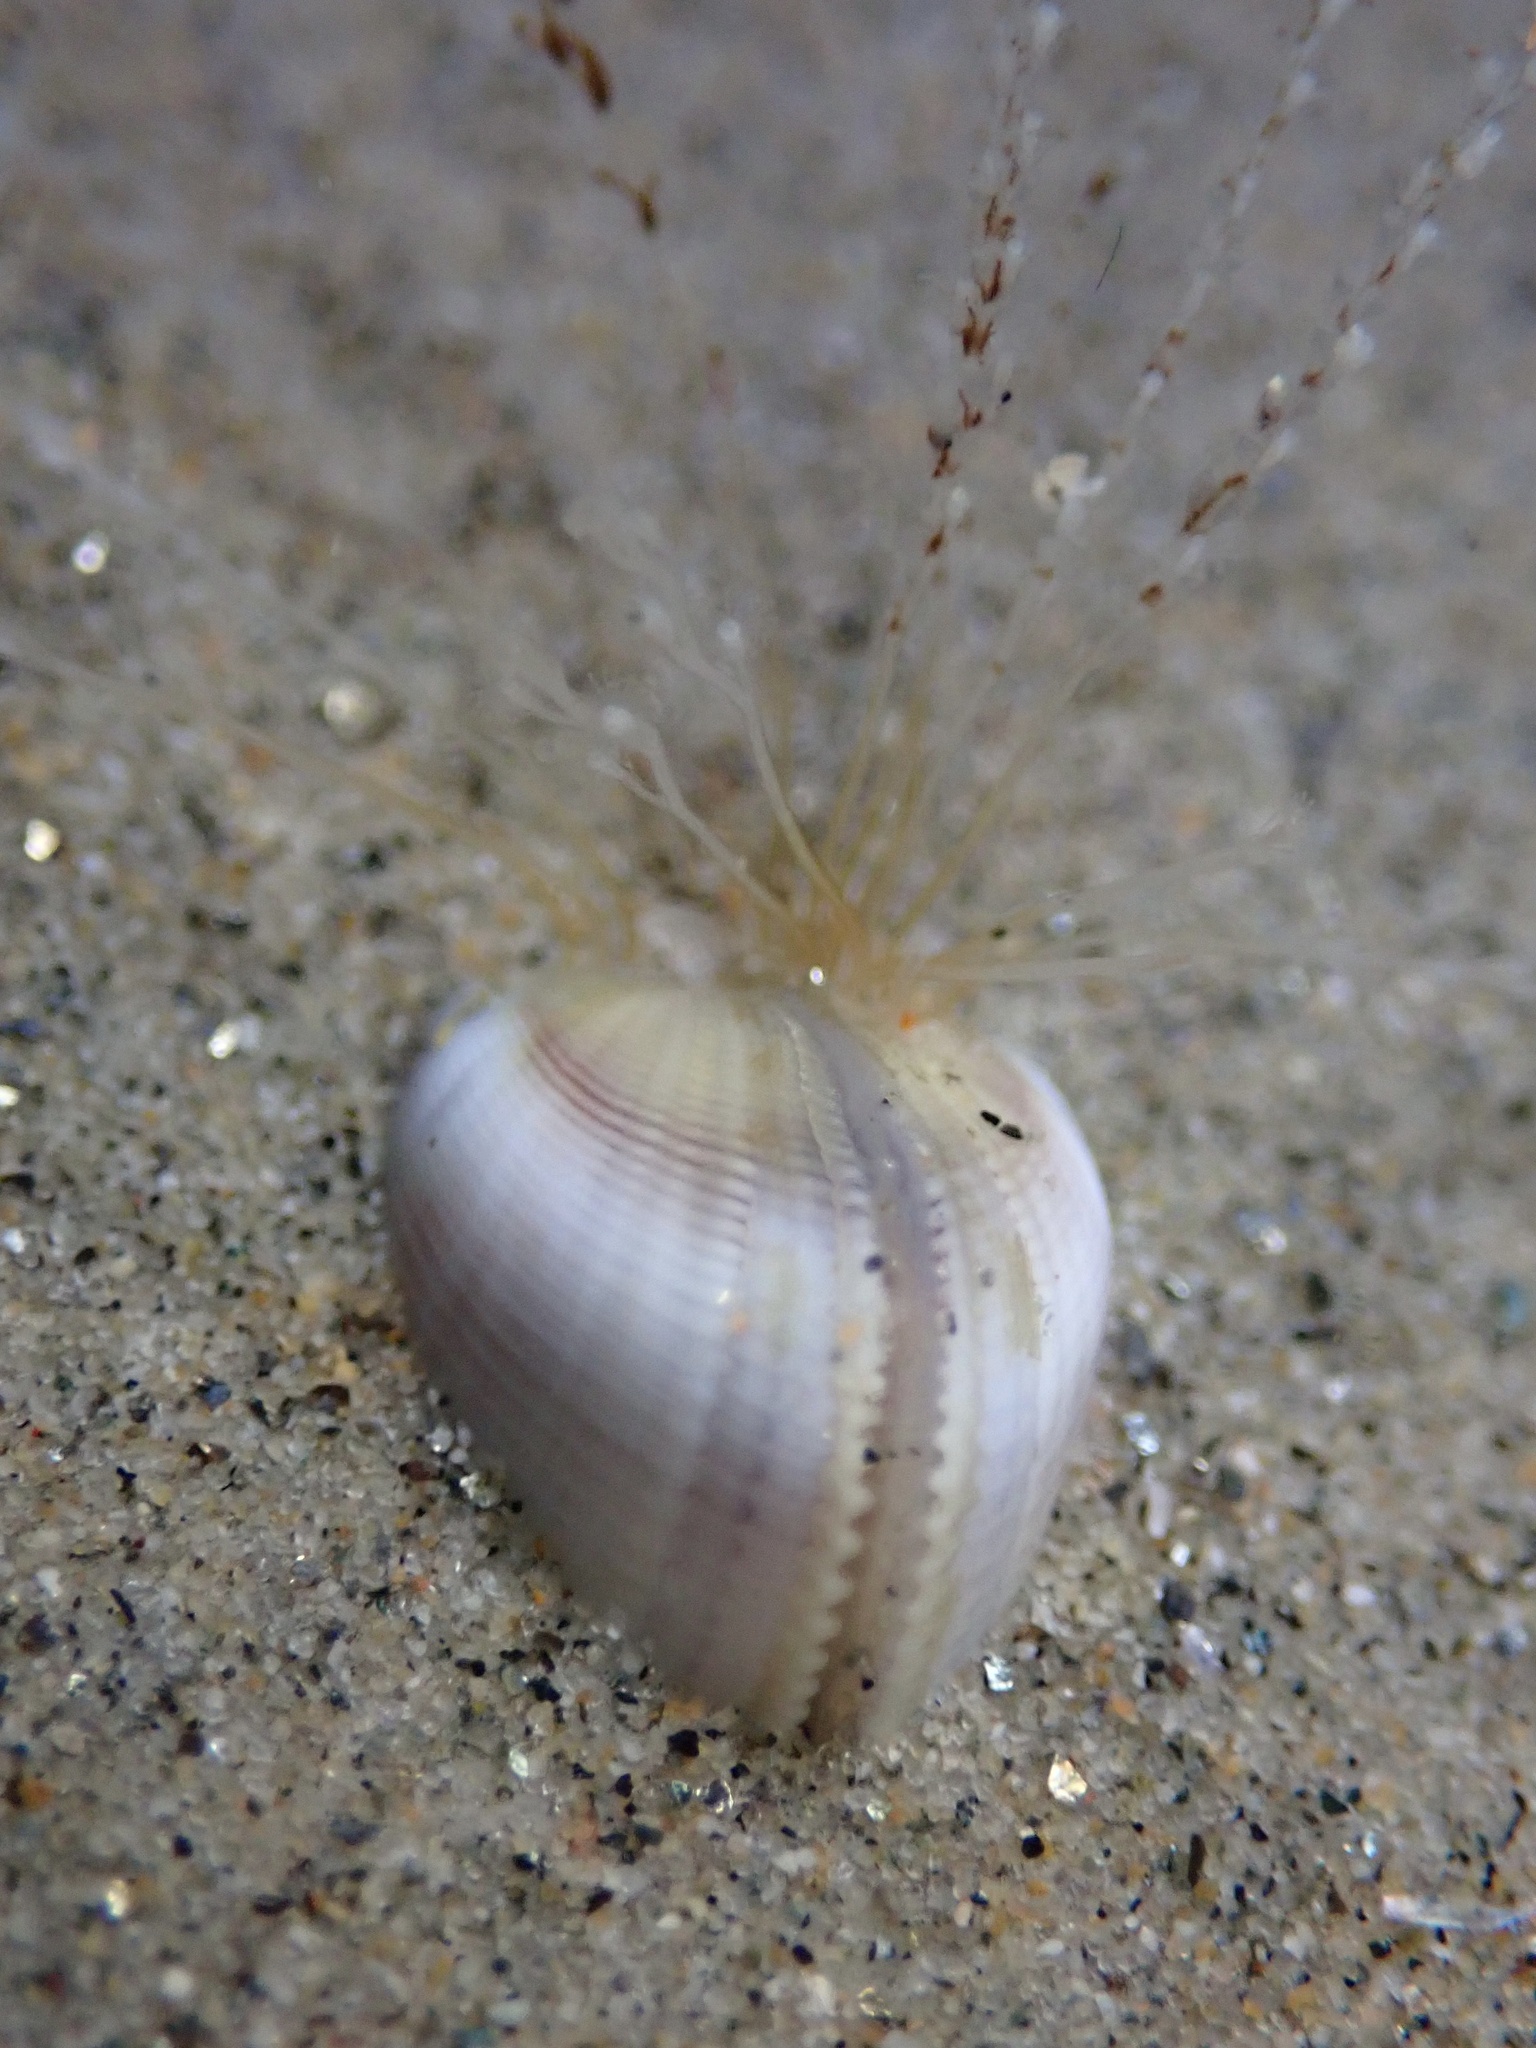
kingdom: Animalia
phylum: Cnidaria
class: Hydrozoa
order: Leptothecata
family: Lovenellidae
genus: Eucheilota
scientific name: Eucheilota bakeri
